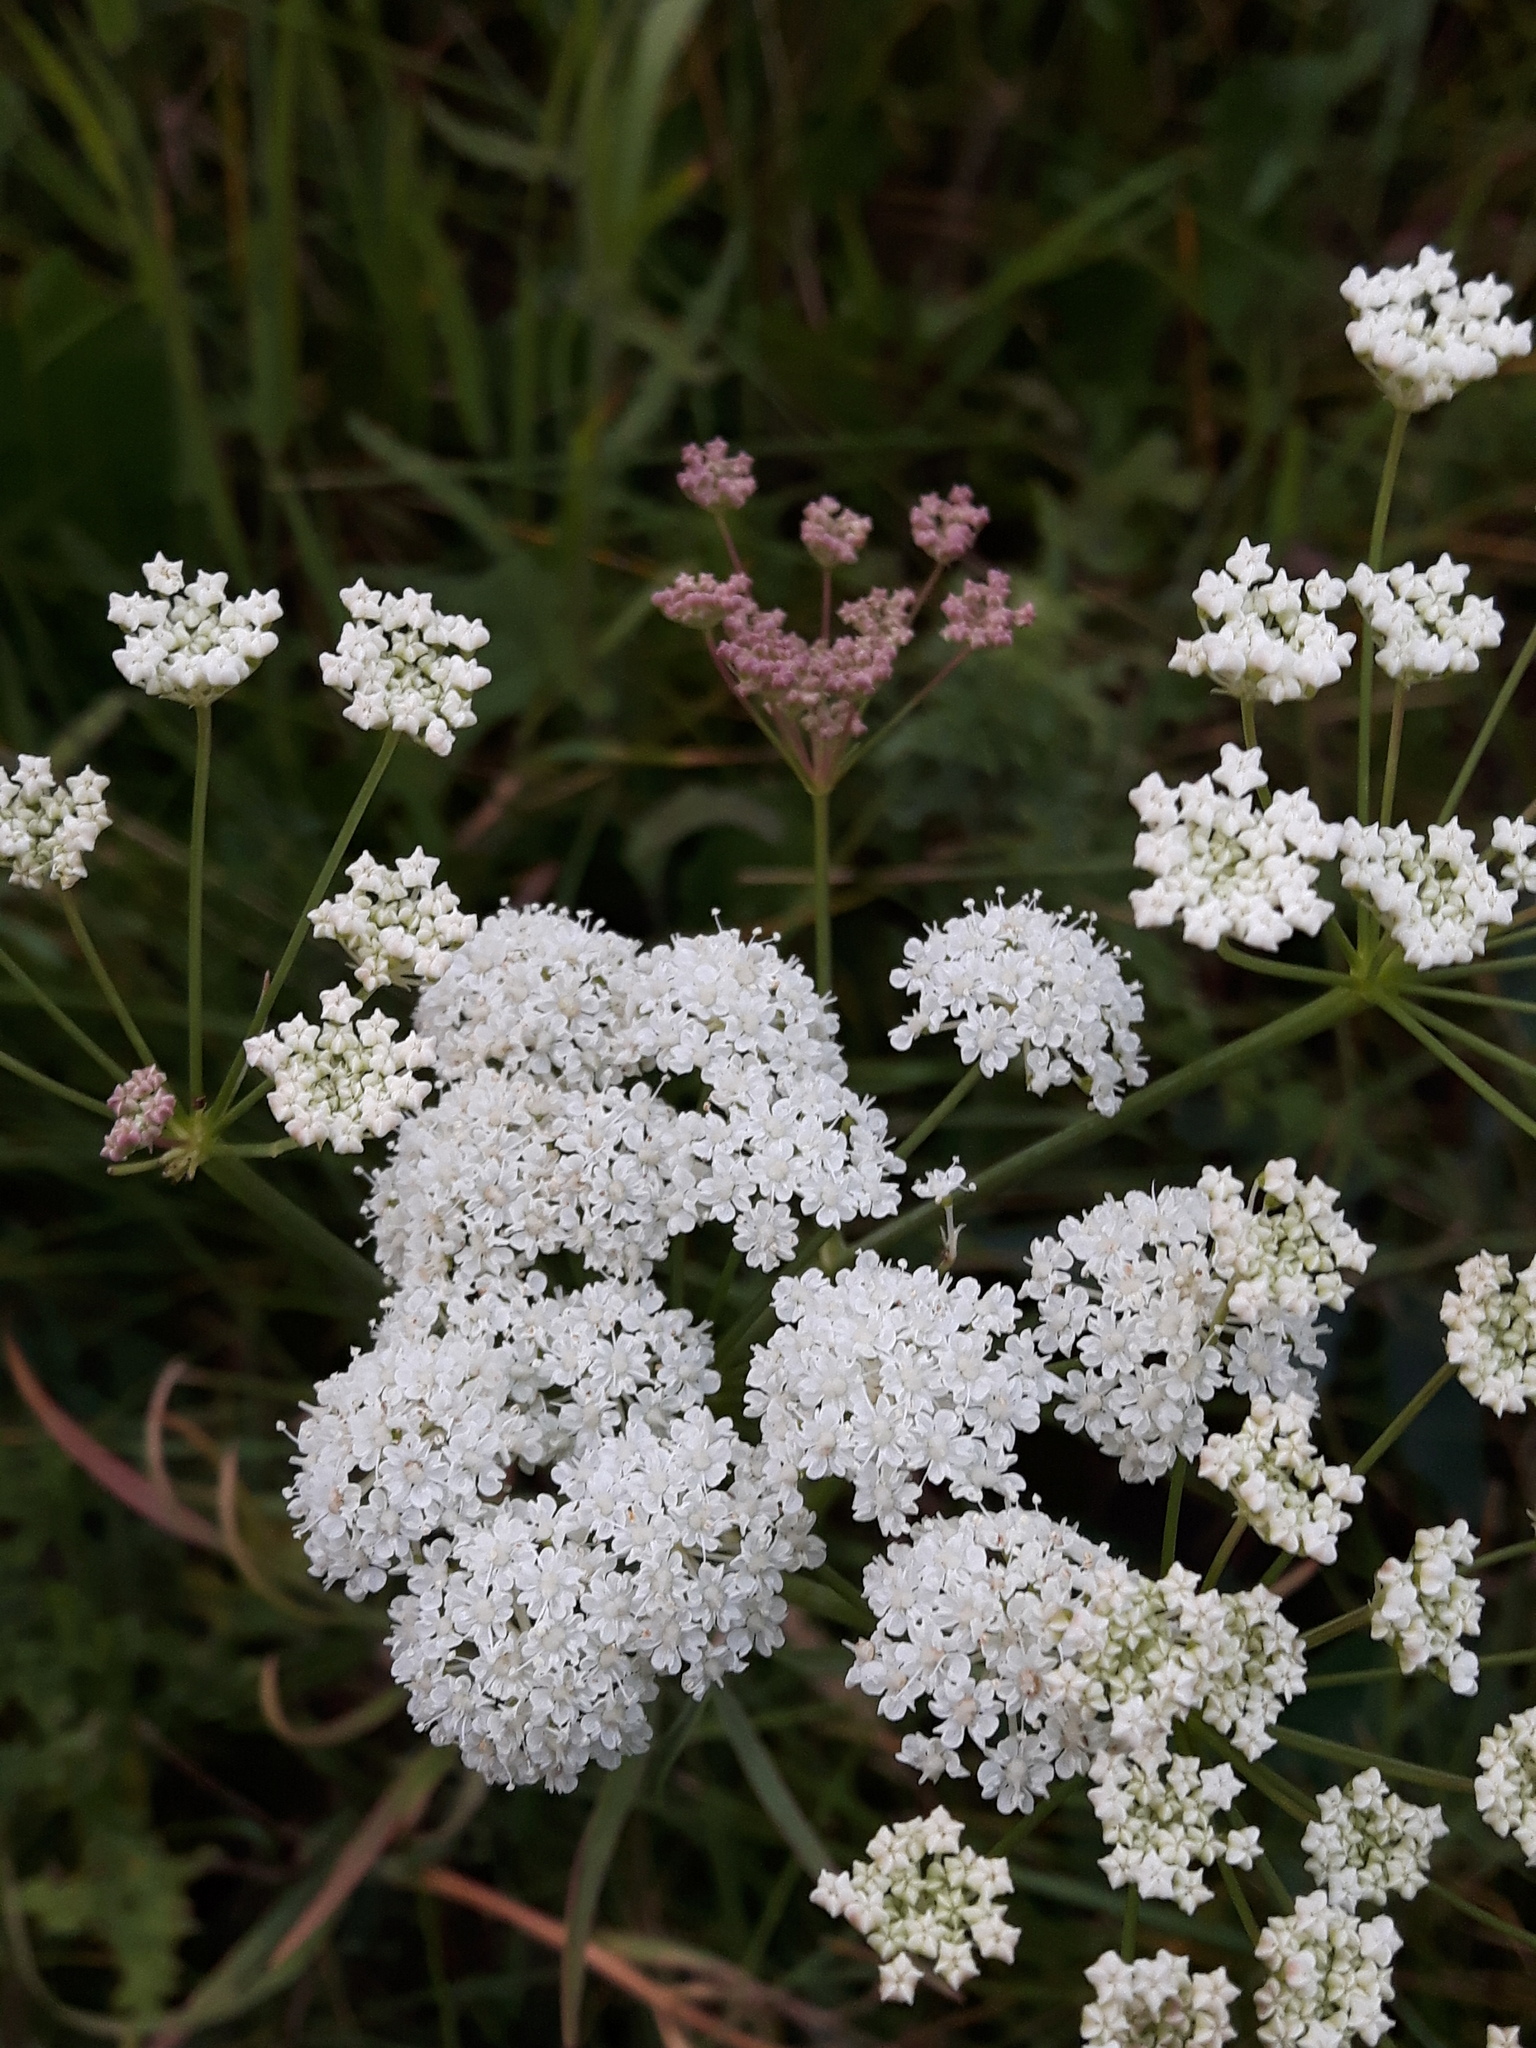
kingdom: Plantae
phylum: Tracheophyta
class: Magnoliopsida
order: Apiales
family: Apiaceae
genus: Perideridia
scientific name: Perideridia gairdneri
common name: False caraway
